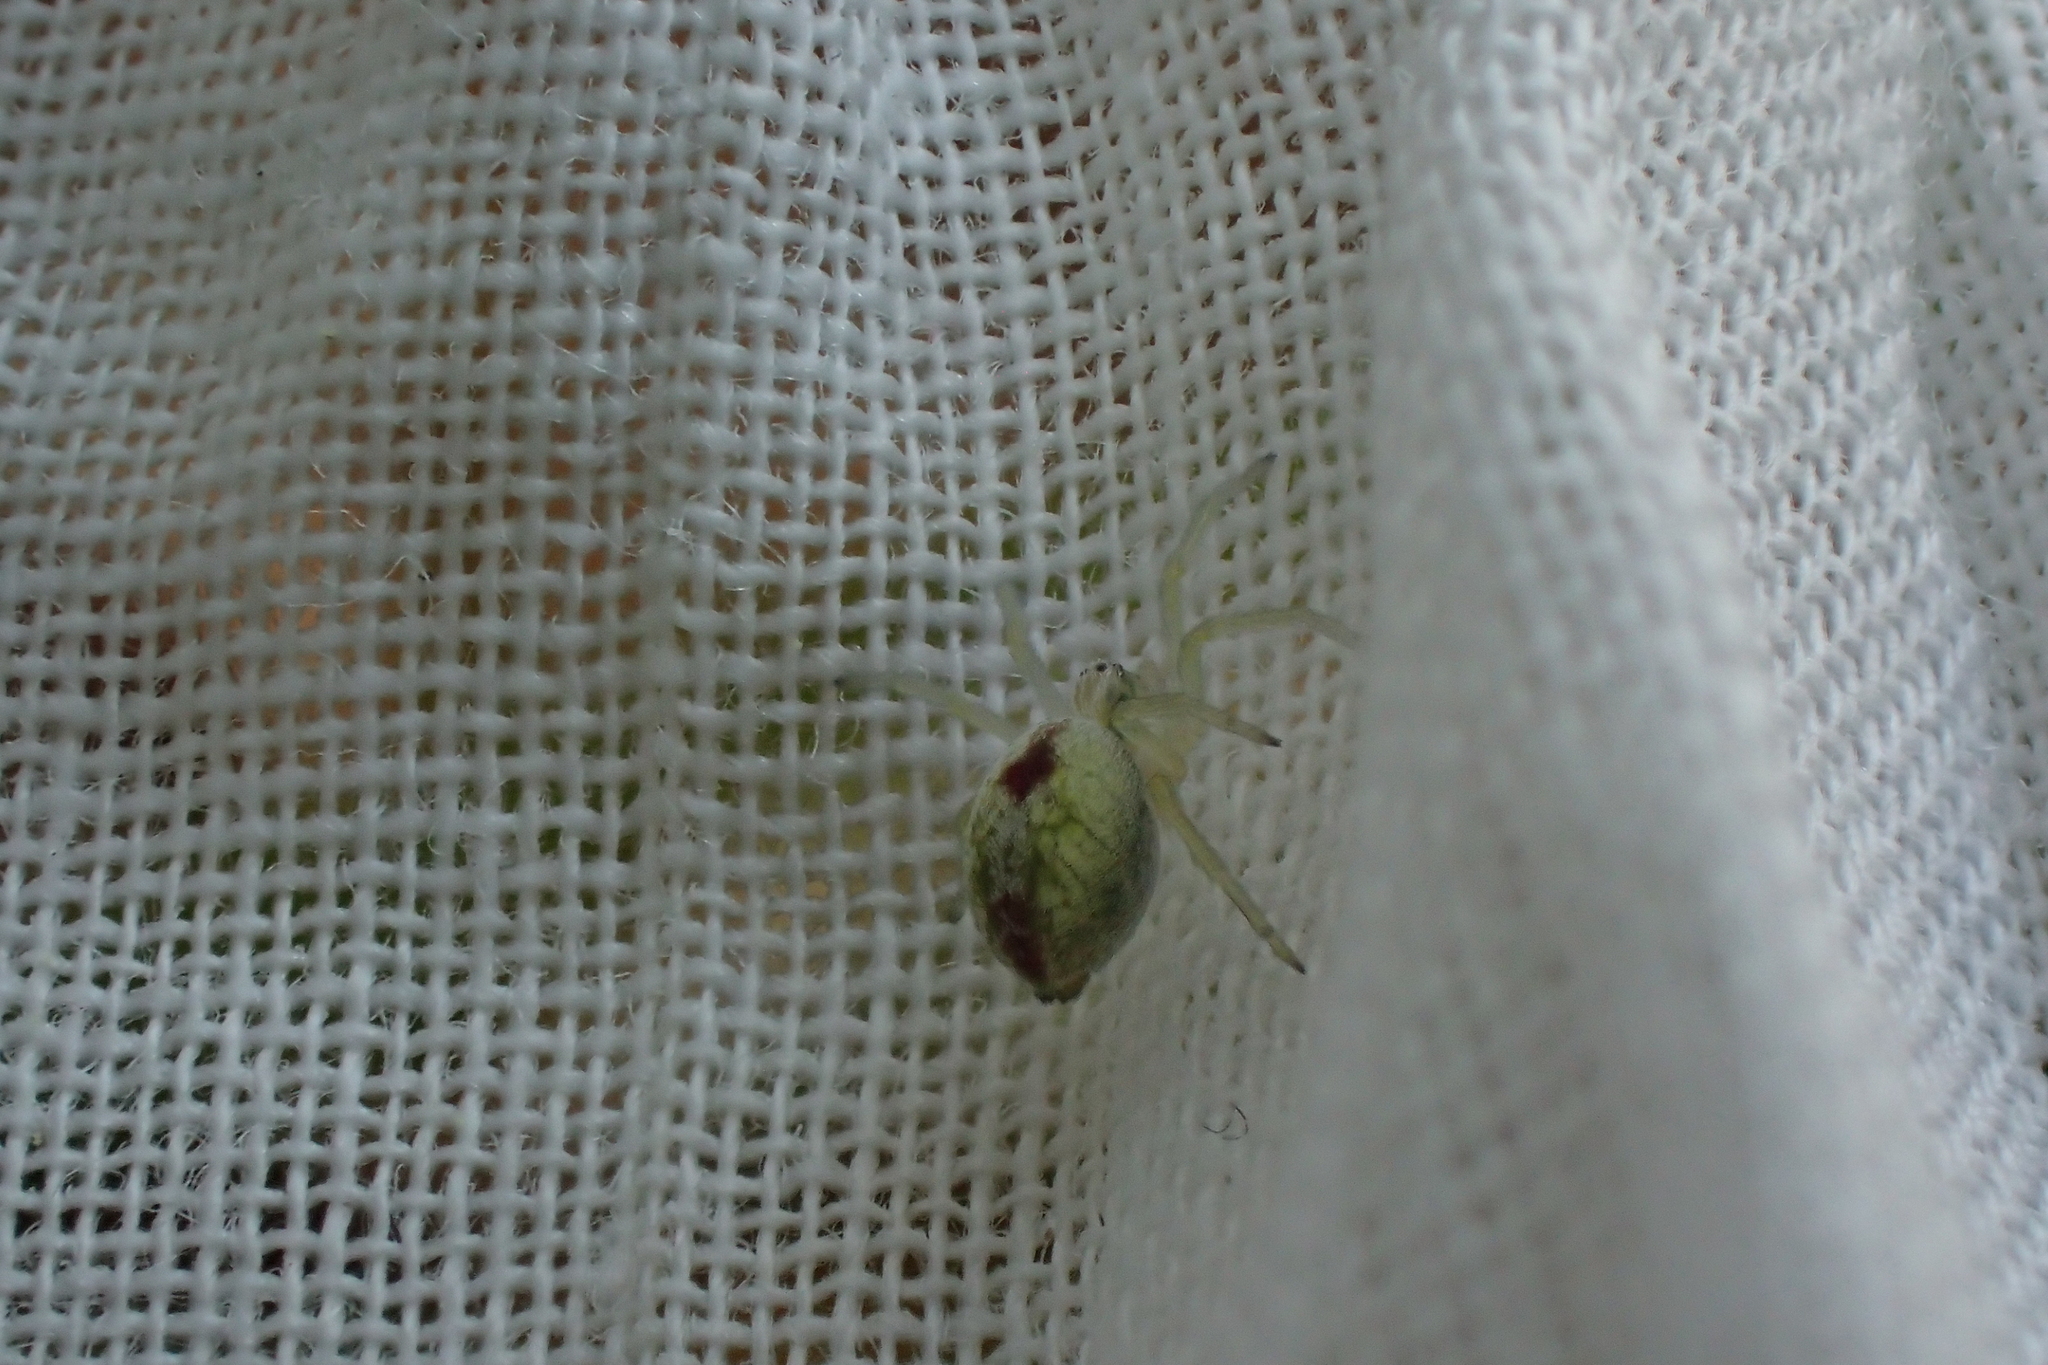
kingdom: Animalia
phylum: Arthropoda
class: Arachnida
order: Araneae
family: Dictynidae
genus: Nigma
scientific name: Nigma puella
